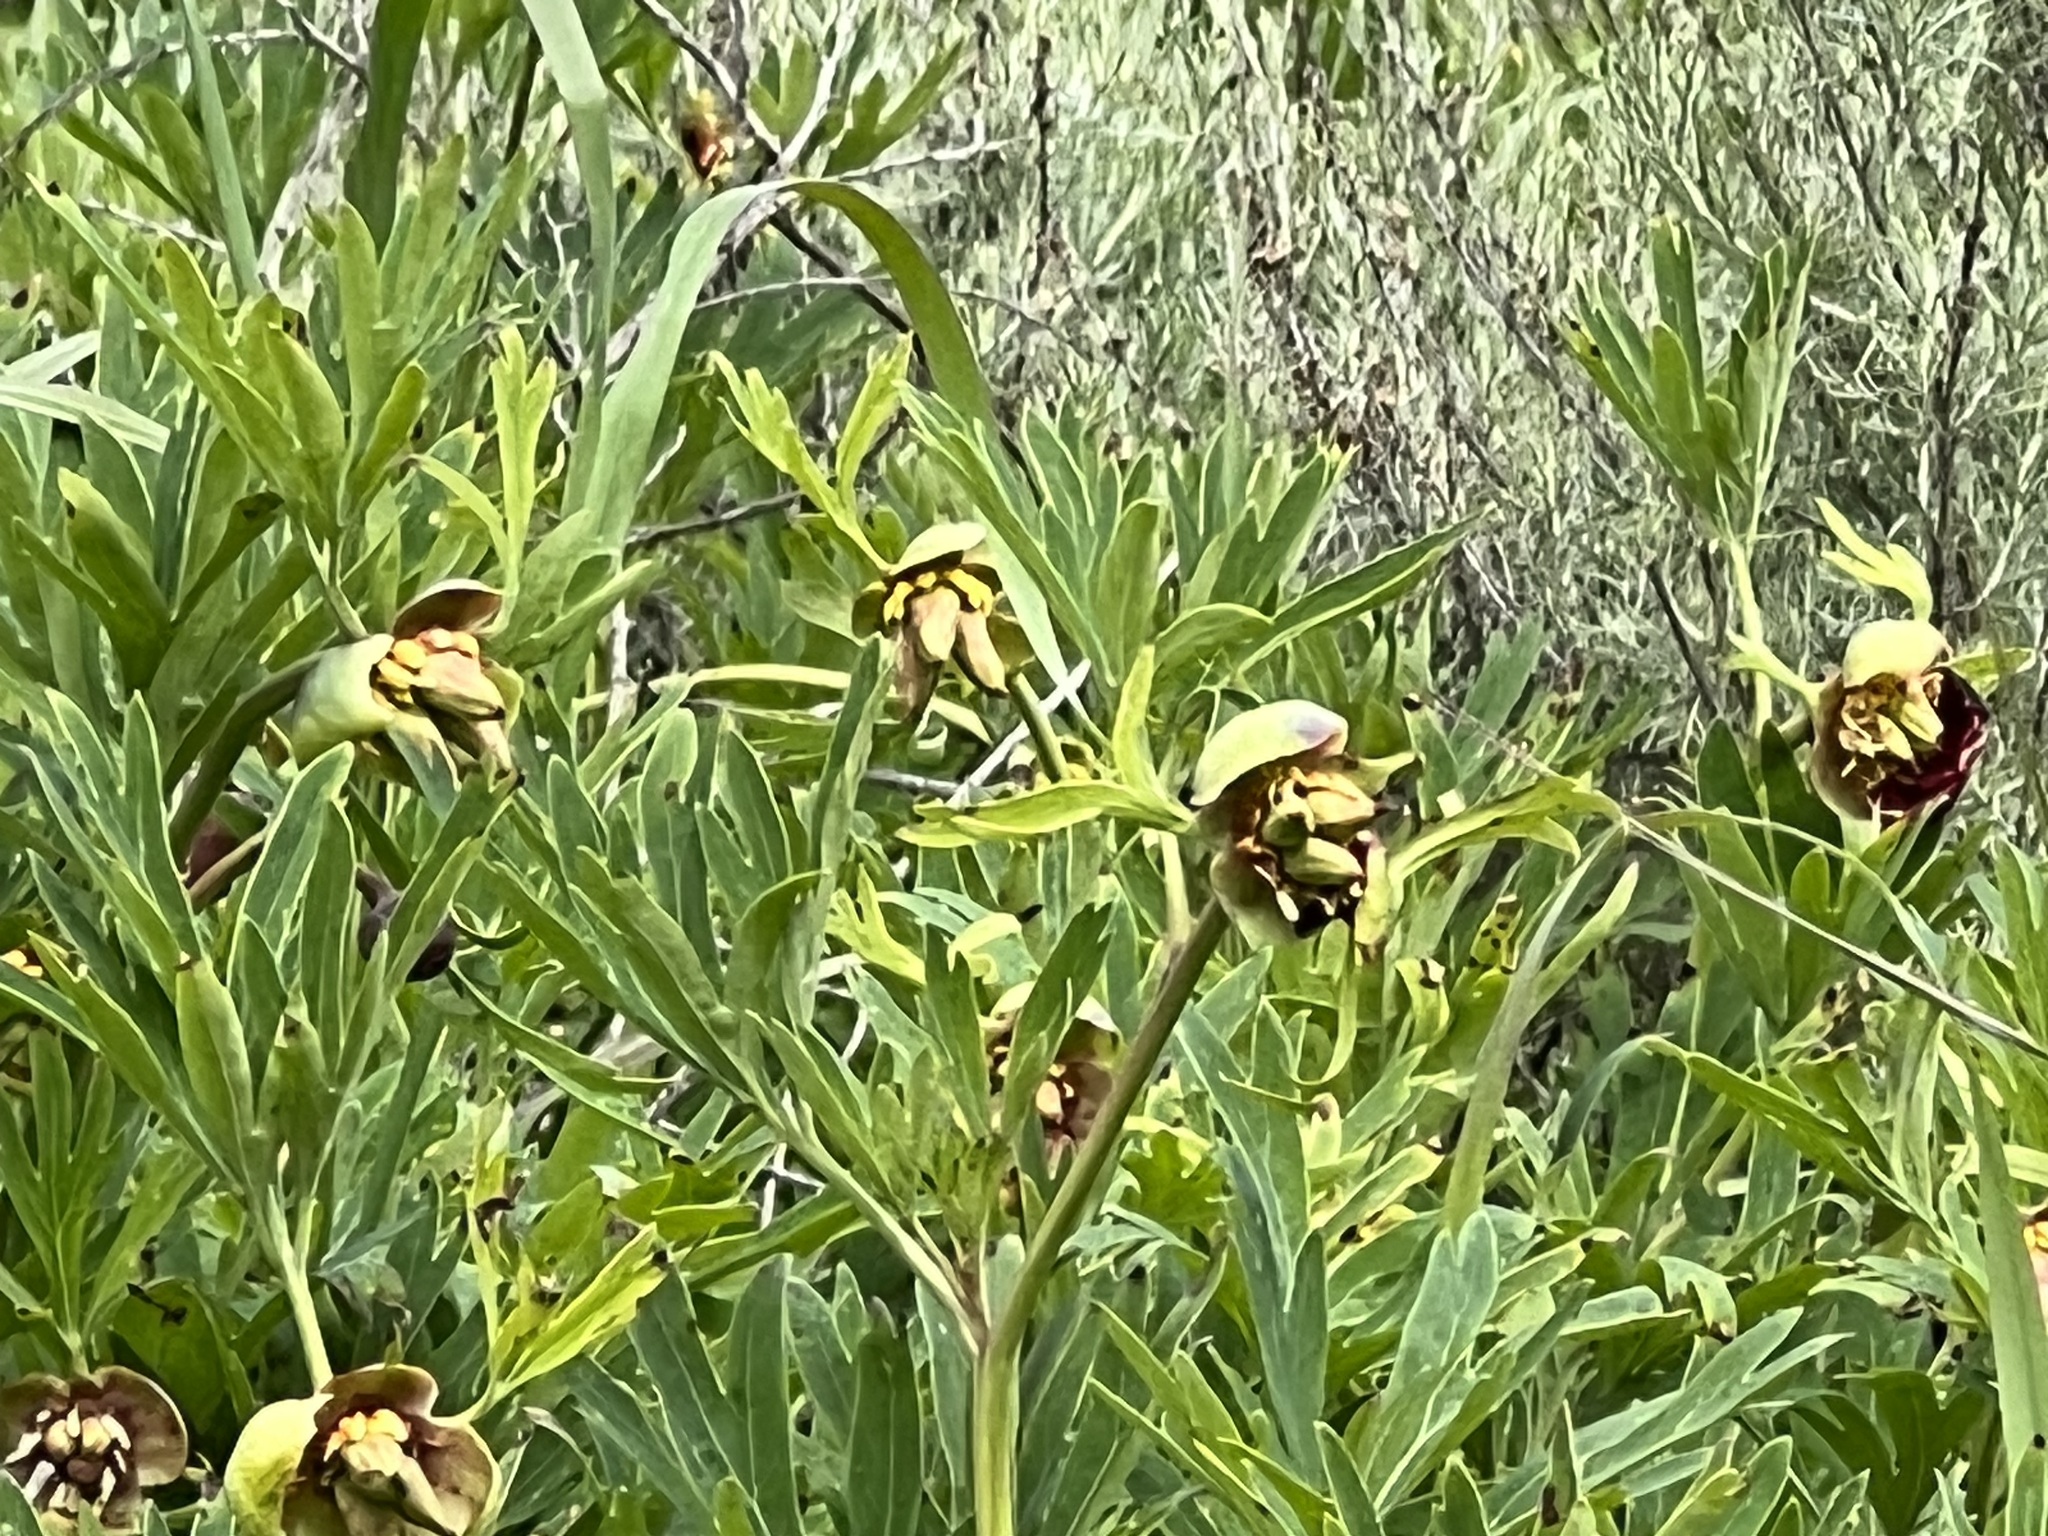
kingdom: Plantae
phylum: Tracheophyta
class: Magnoliopsida
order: Saxifragales
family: Paeoniaceae
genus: Paeonia
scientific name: Paeonia californica
